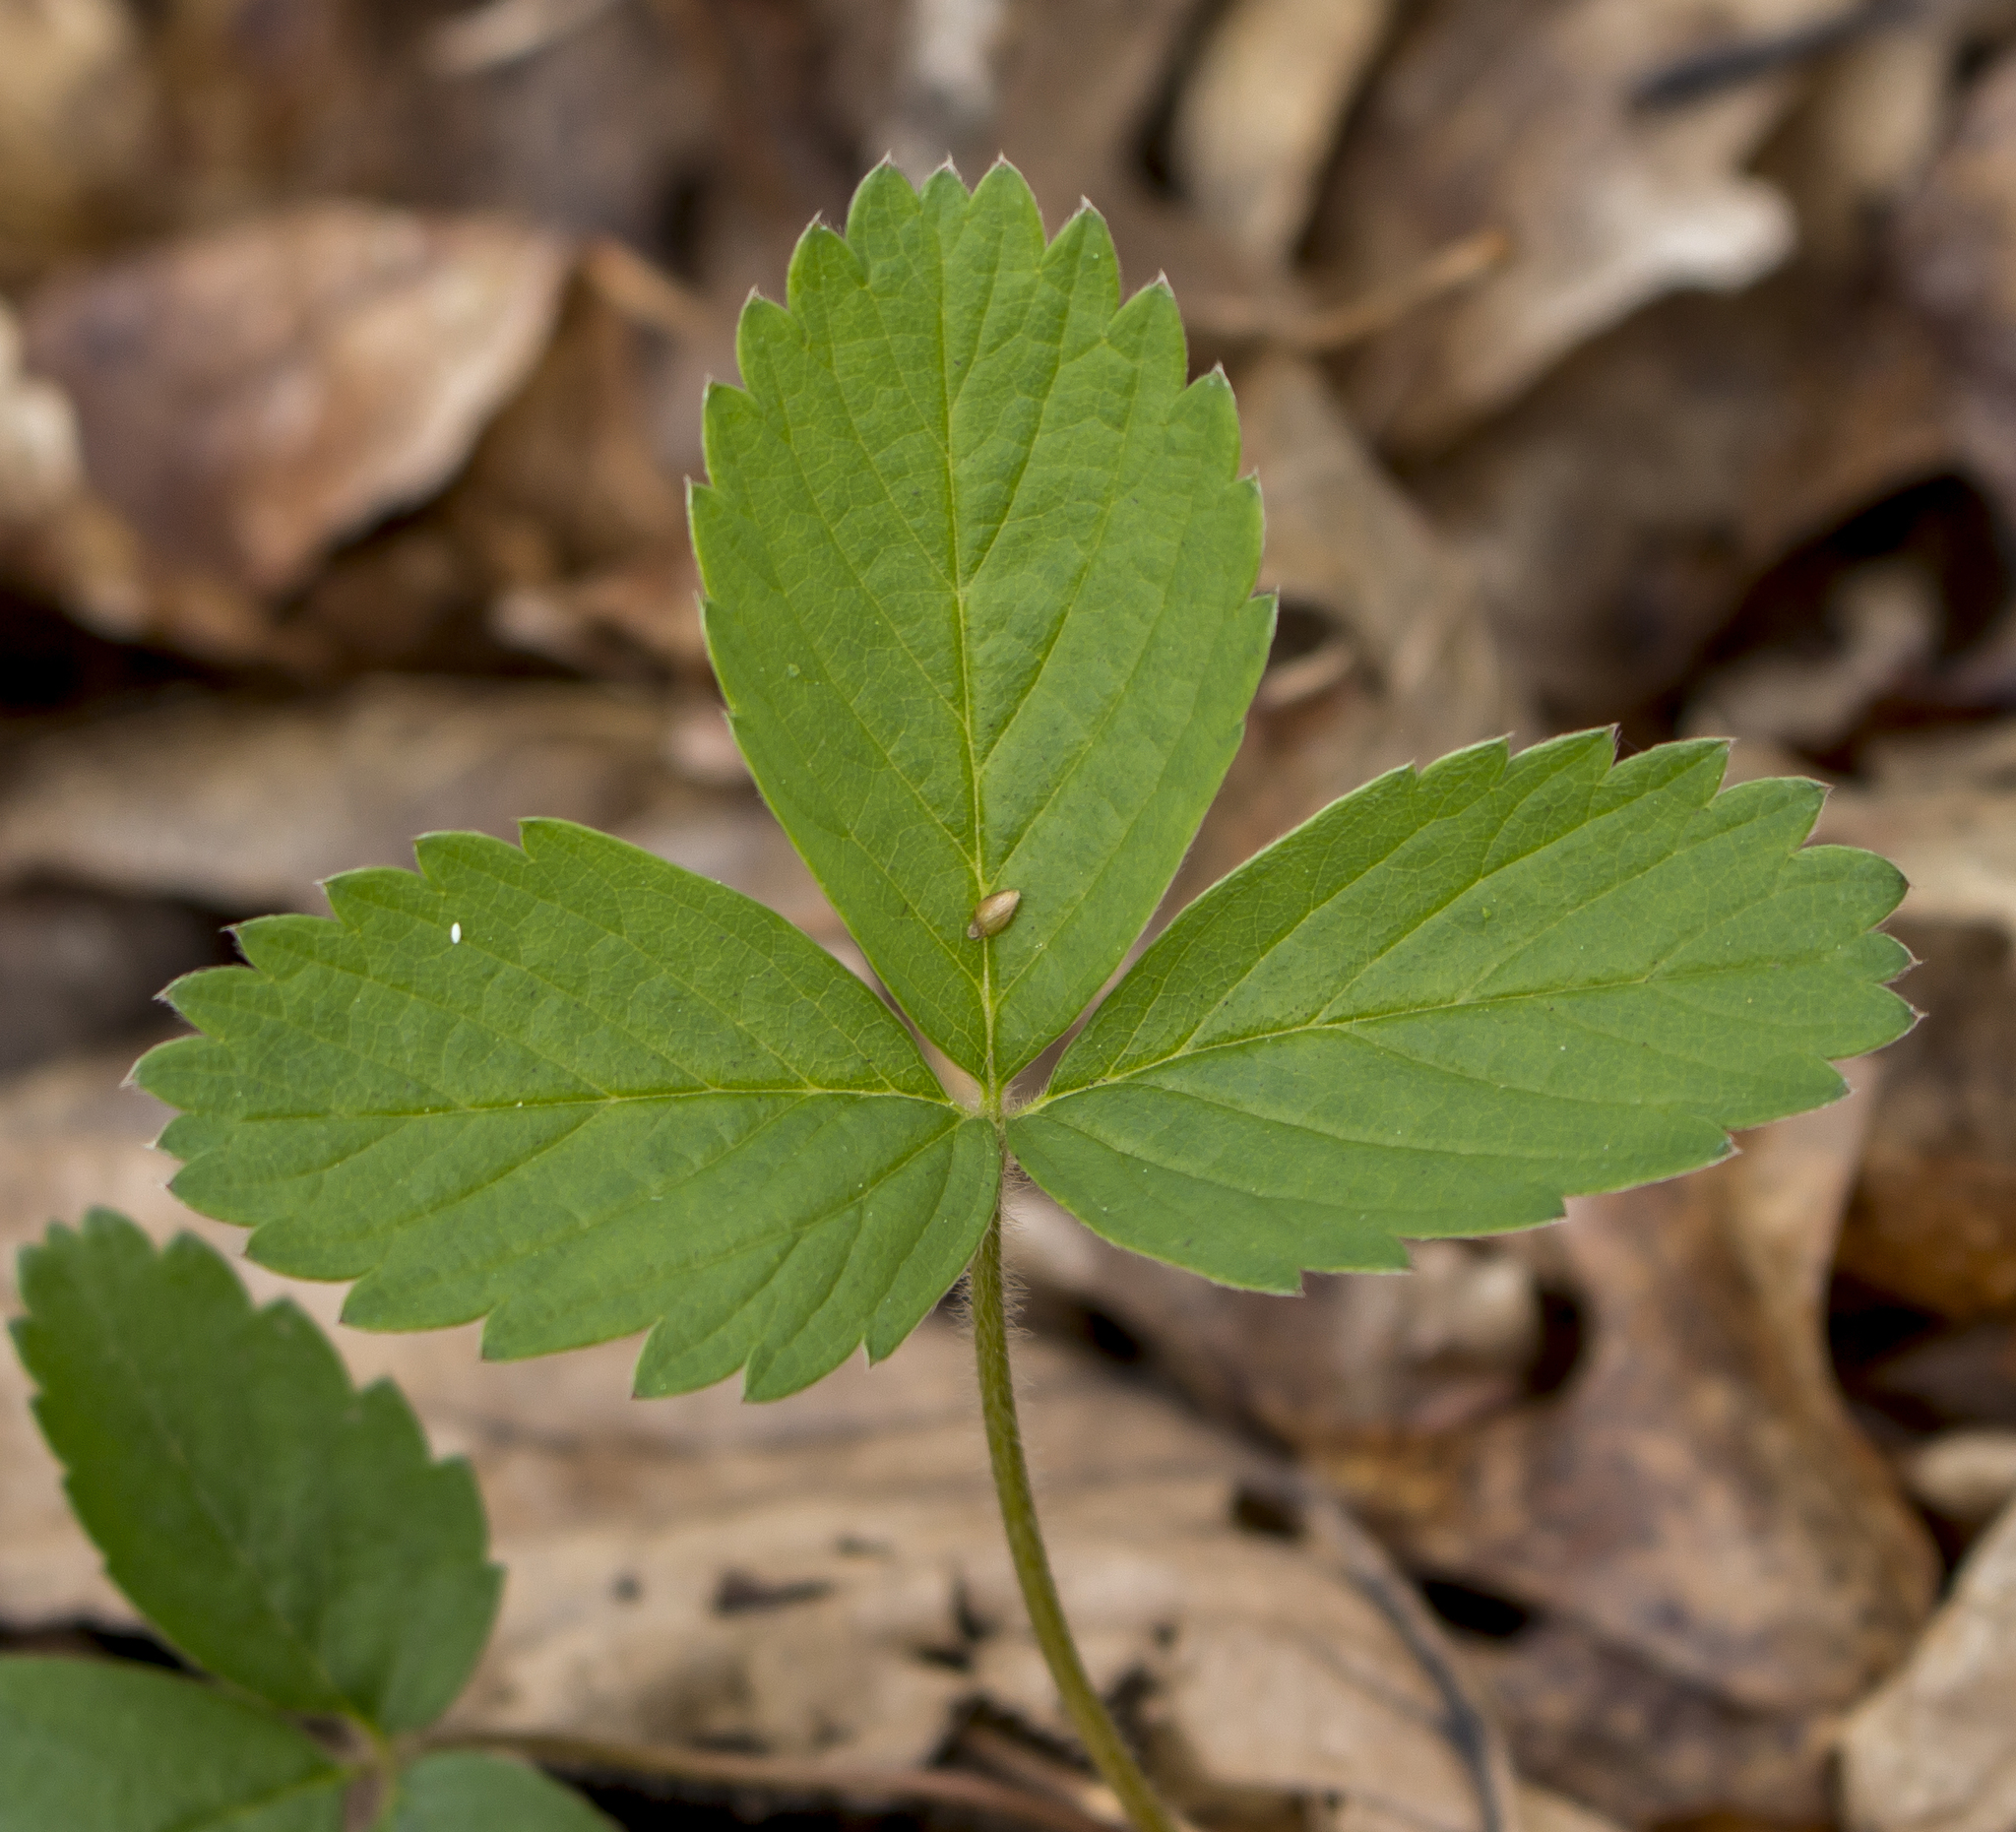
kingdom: Plantae
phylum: Tracheophyta
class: Magnoliopsida
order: Rosales
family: Rosaceae
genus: Fragaria
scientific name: Fragaria vesca
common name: Wild strawberry
